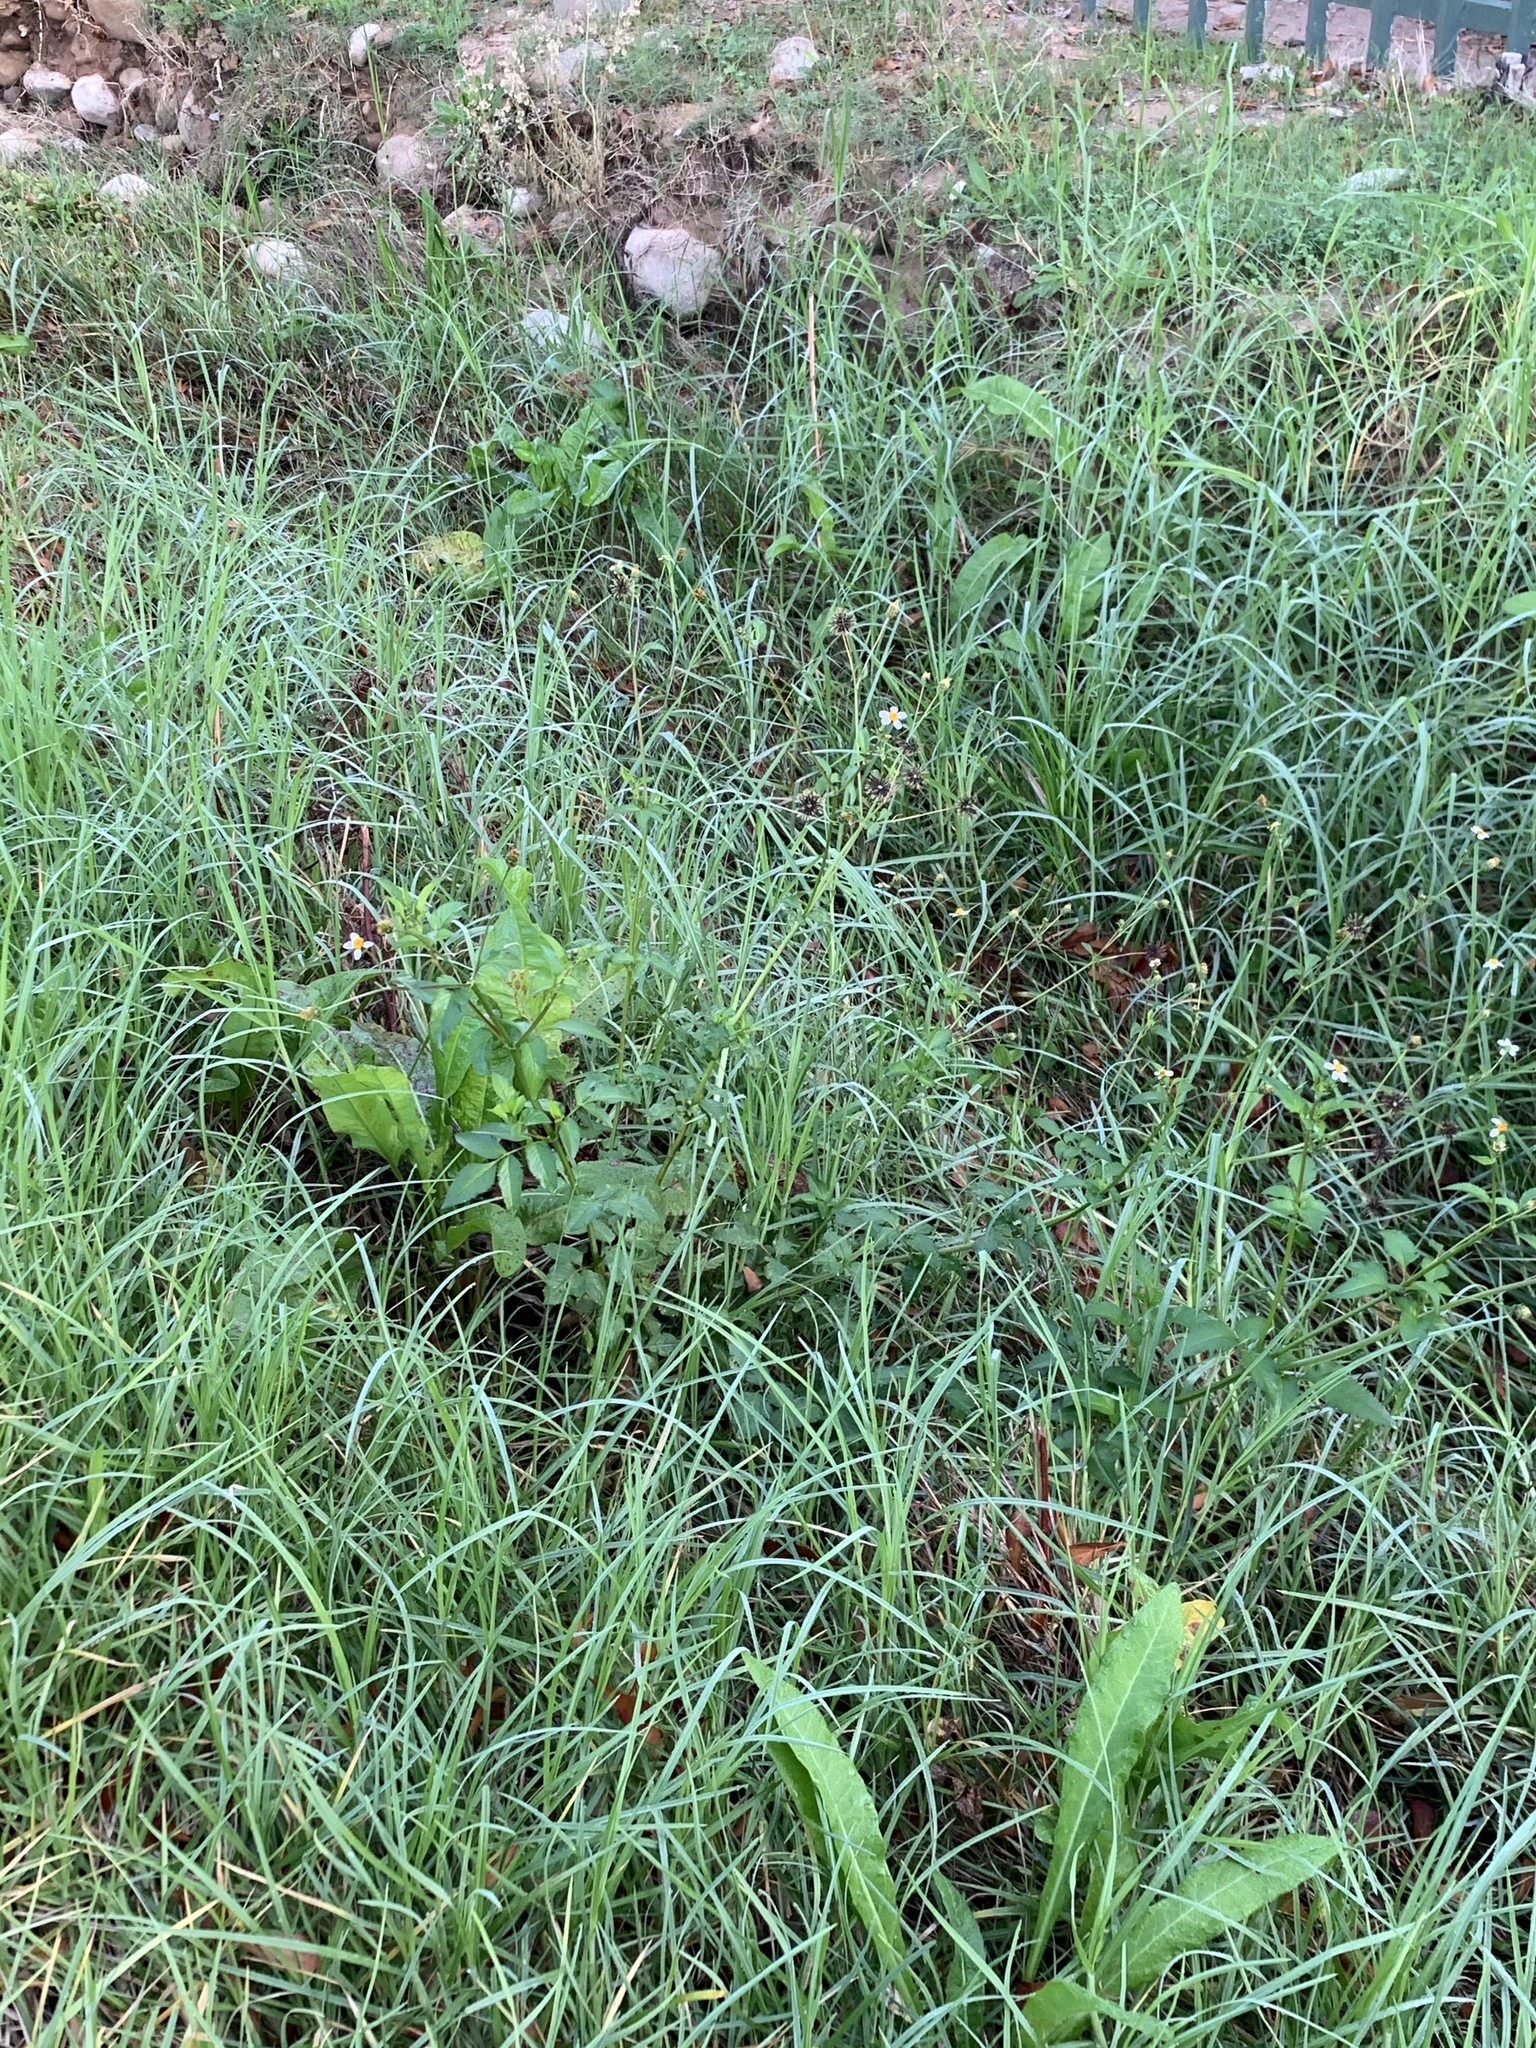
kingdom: Plantae
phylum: Tracheophyta
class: Magnoliopsida
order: Asterales
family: Asteraceae
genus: Bidens
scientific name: Bidens pilosa
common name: Black-jack
